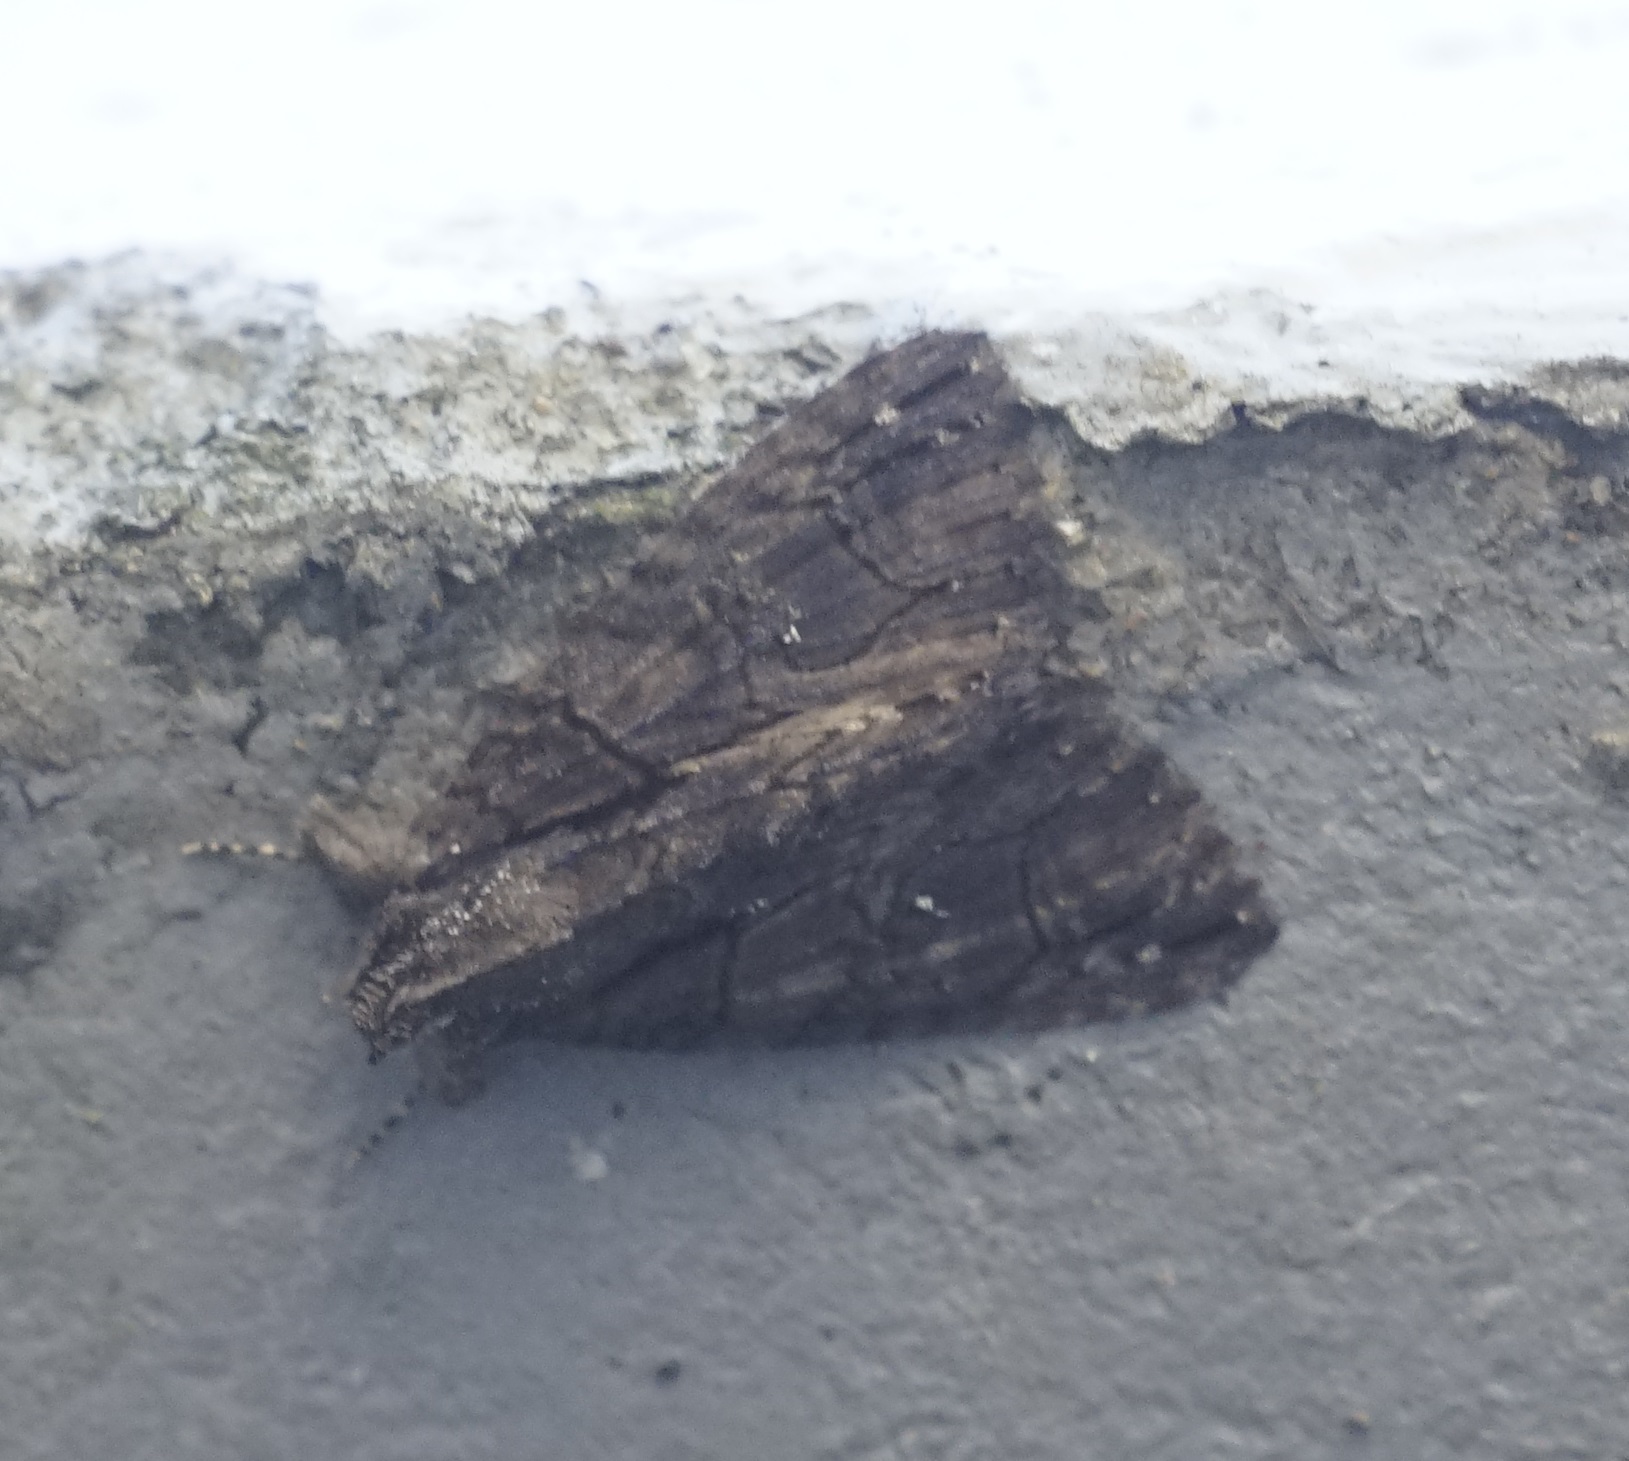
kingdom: Animalia
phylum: Arthropoda
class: Insecta
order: Lepidoptera
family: Erebidae
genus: Crioa
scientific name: Crioa hades
